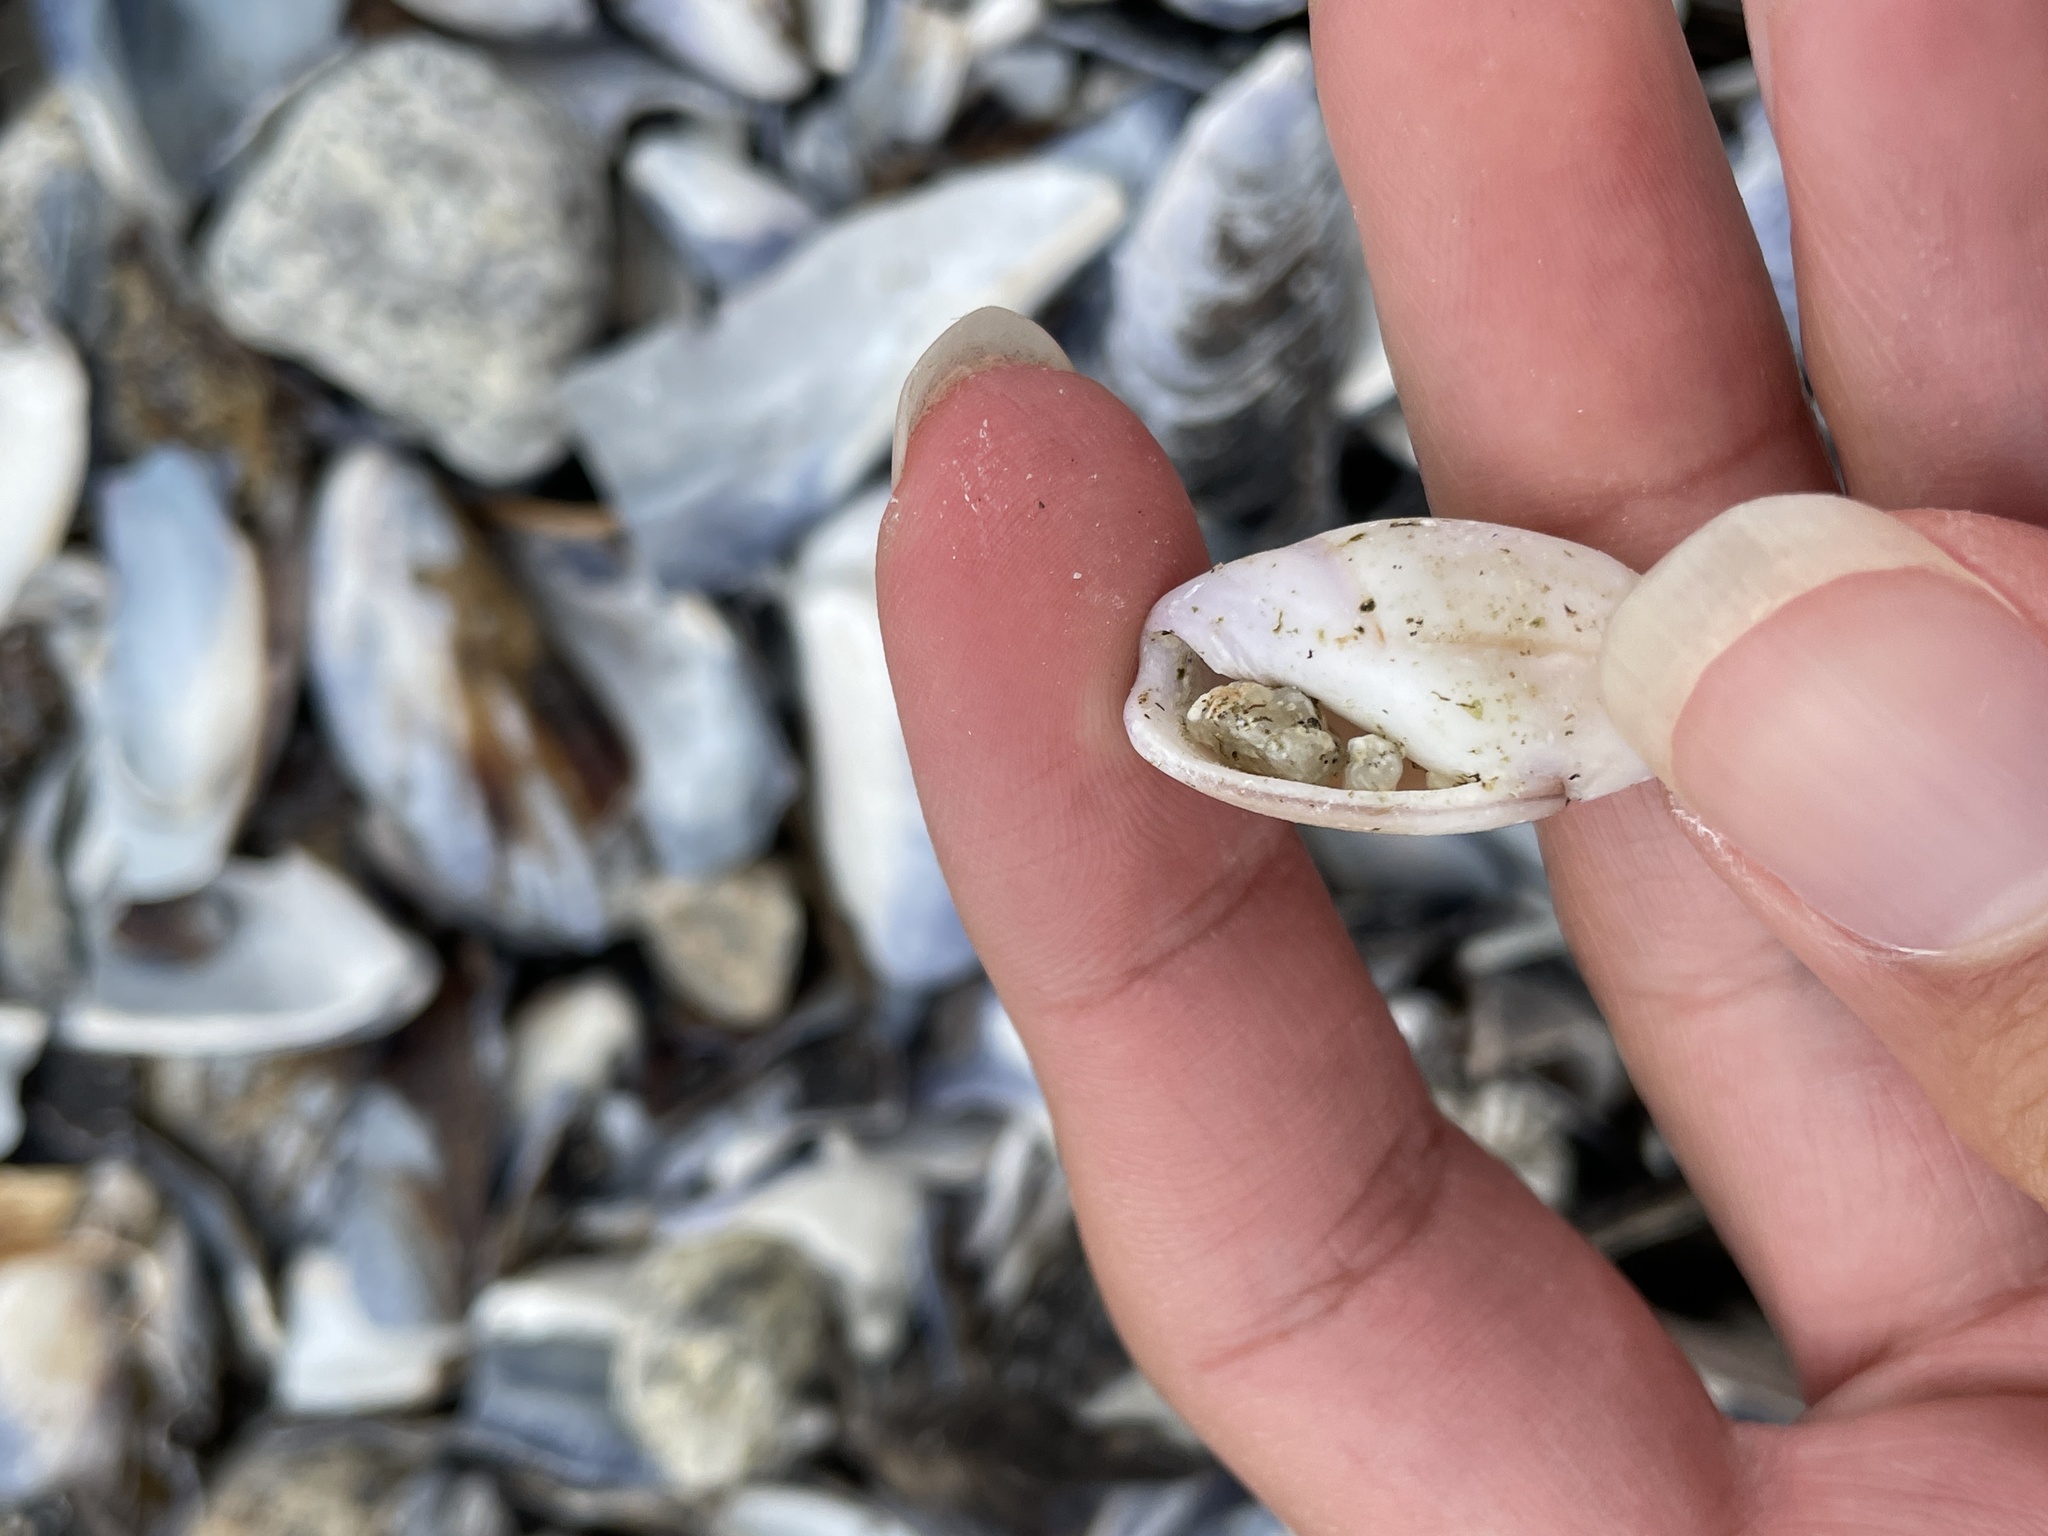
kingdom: Animalia
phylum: Mollusca
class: Gastropoda
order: Neogastropoda
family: Olividae
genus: Callianax
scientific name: Callianax biplicata
